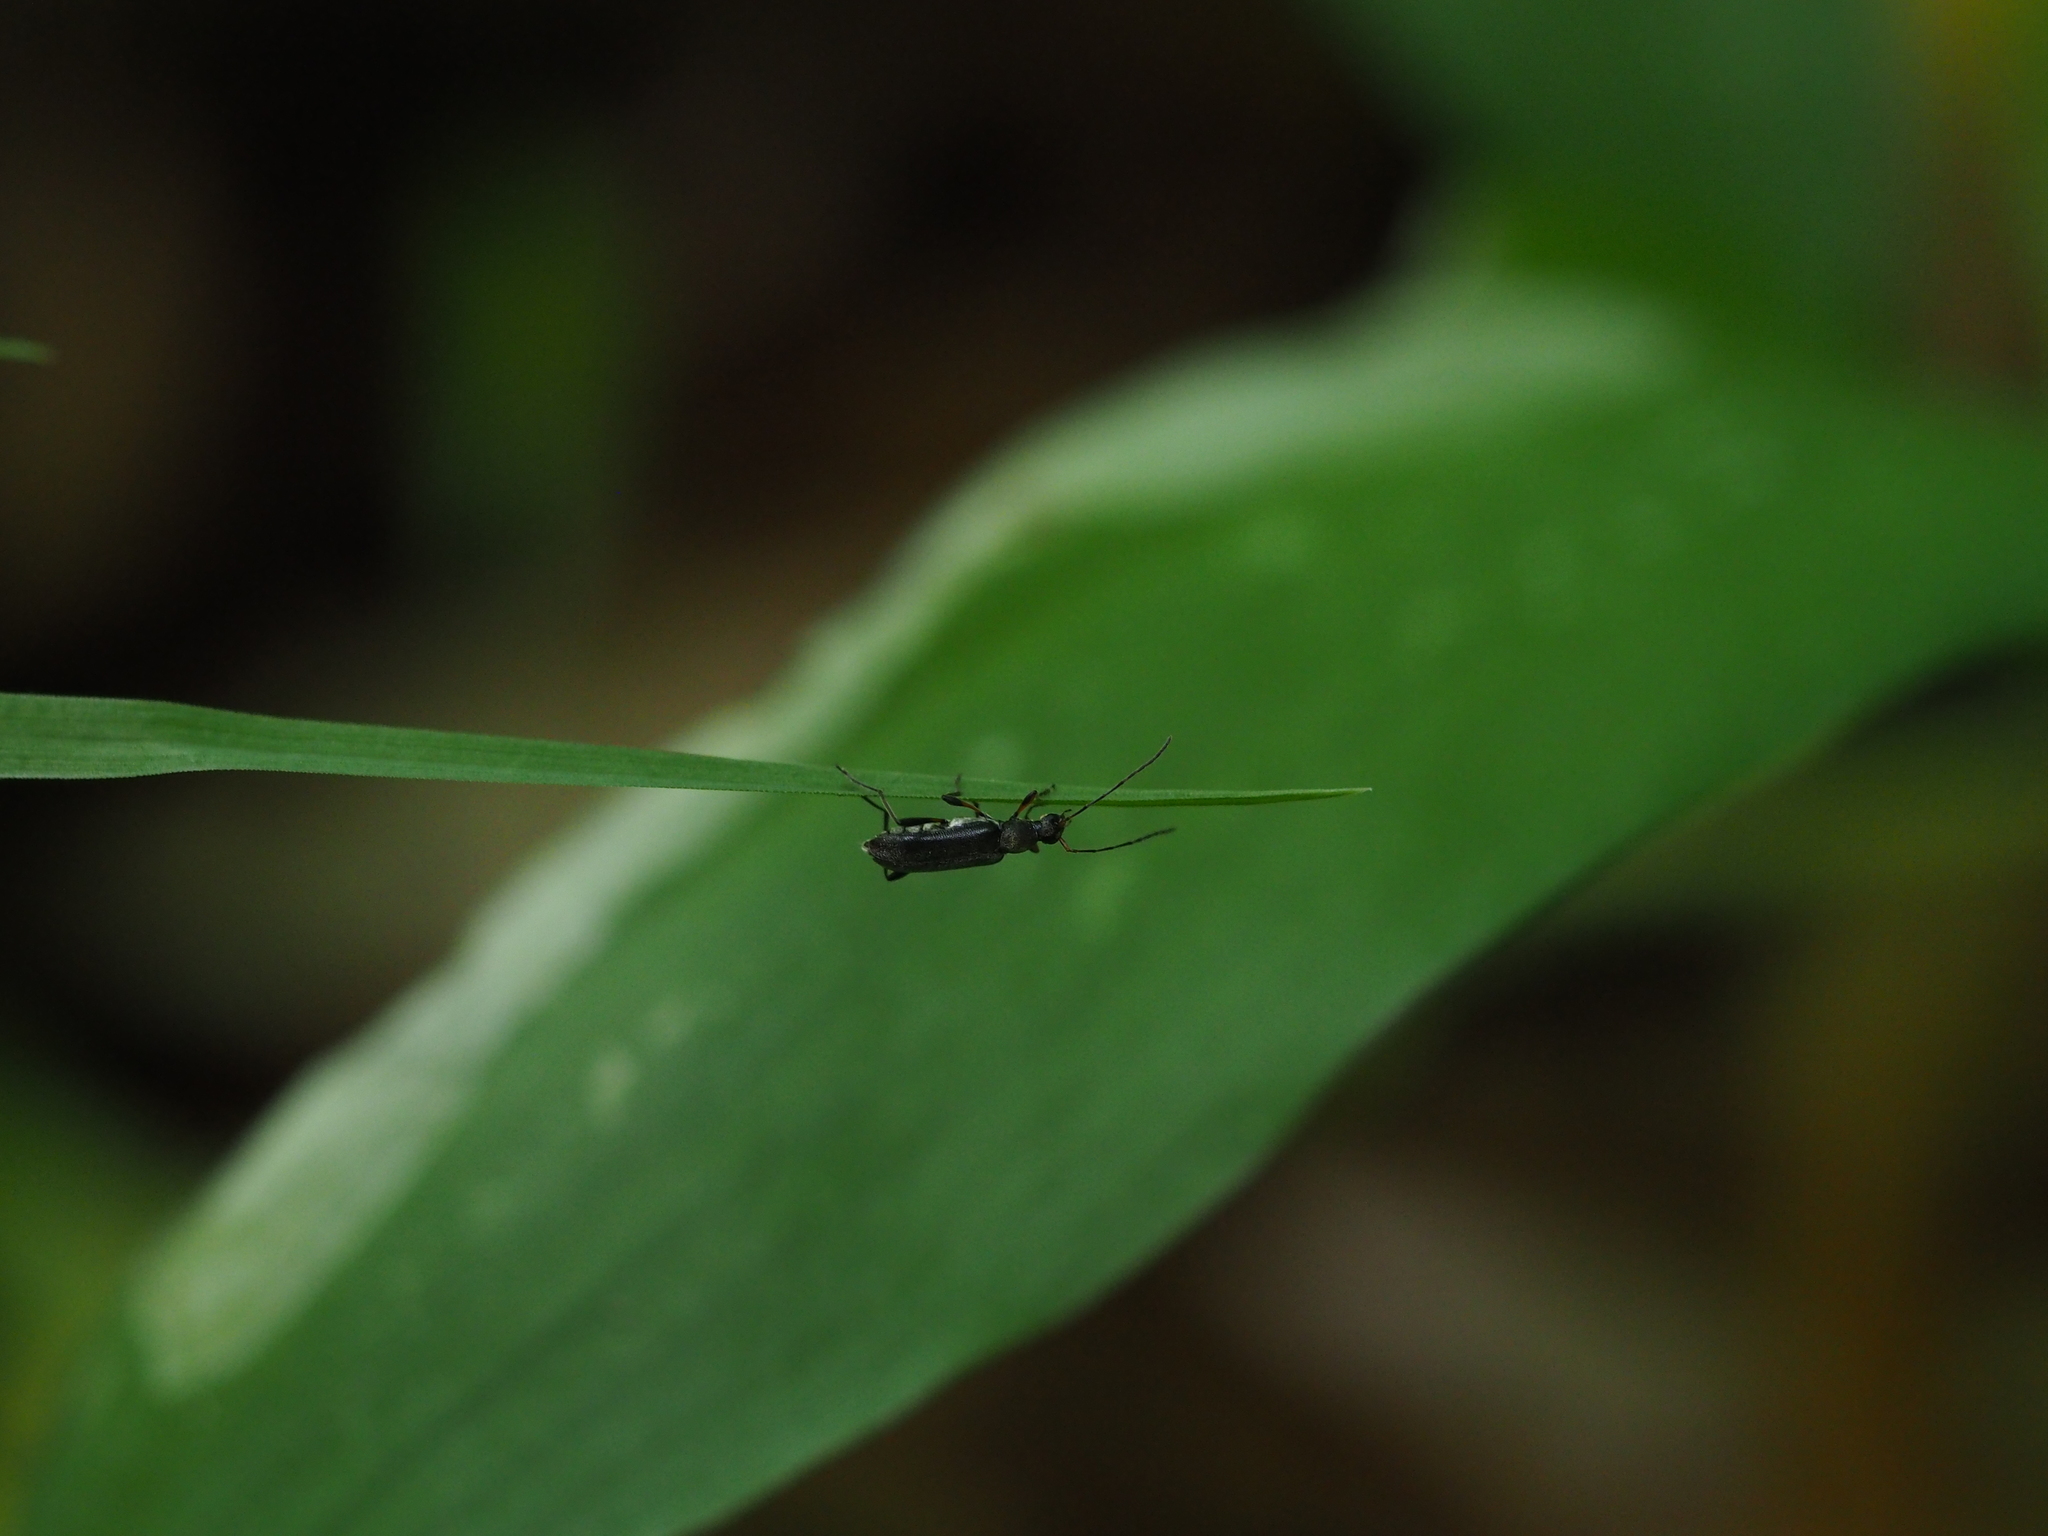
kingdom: Animalia
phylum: Arthropoda
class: Insecta
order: Coleoptera
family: Cerambycidae
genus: Grammoptera
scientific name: Grammoptera ruficornis
